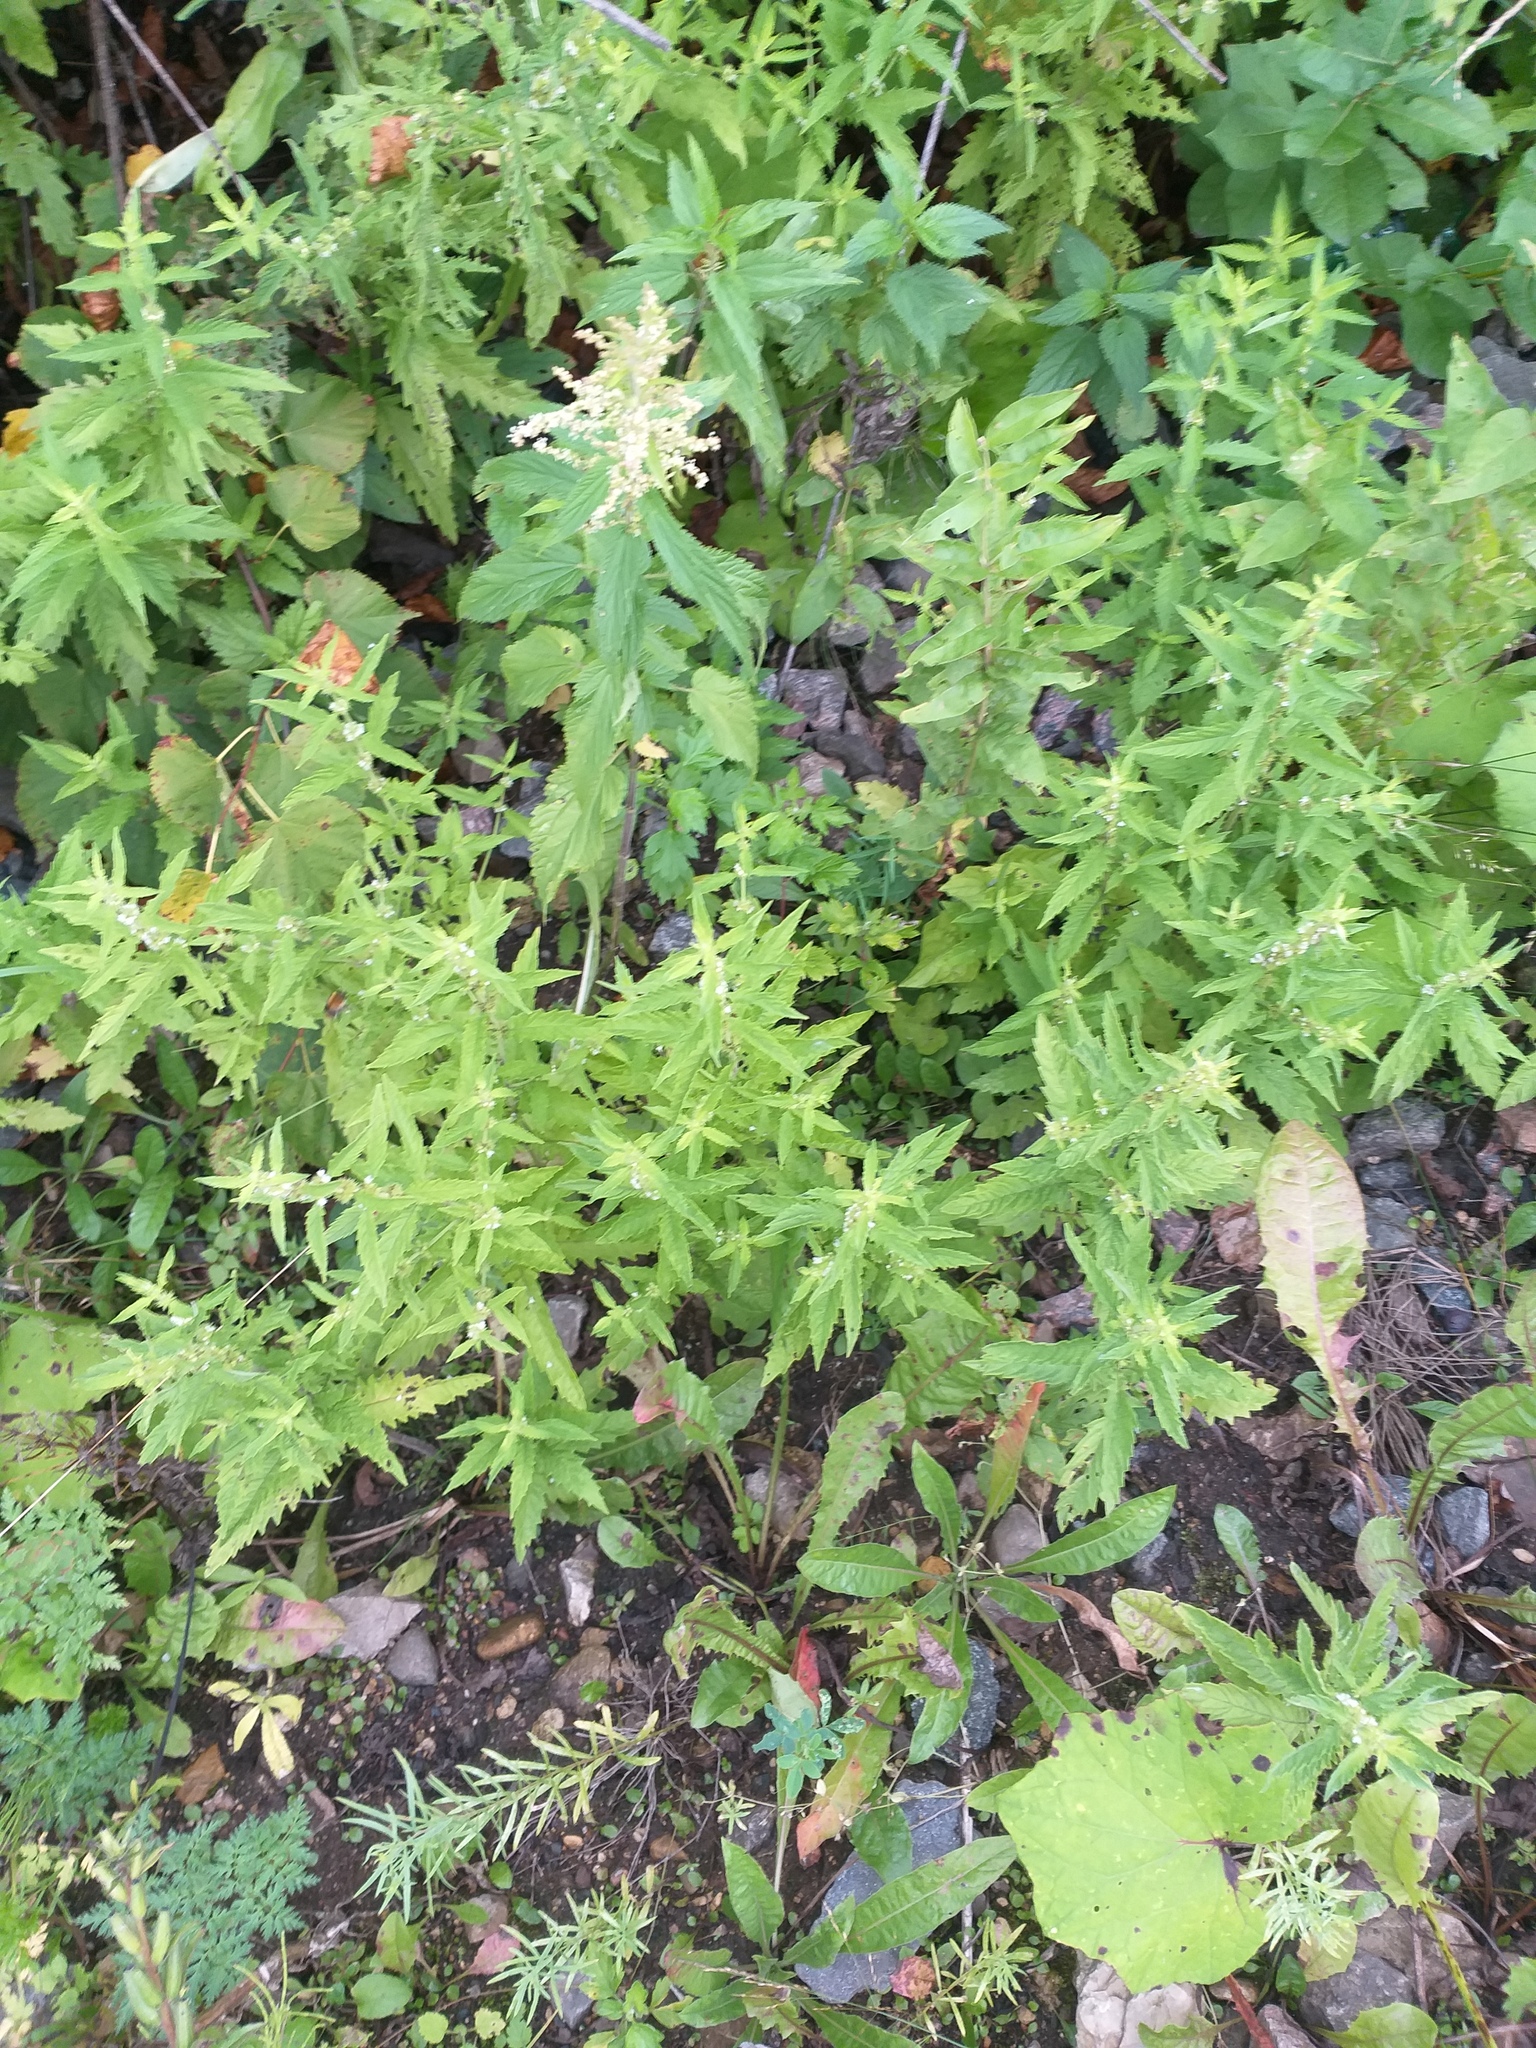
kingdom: Plantae
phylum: Tracheophyta
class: Magnoliopsida
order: Lamiales
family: Lamiaceae
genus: Lycopus
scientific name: Lycopus europaeus
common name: European bugleweed
